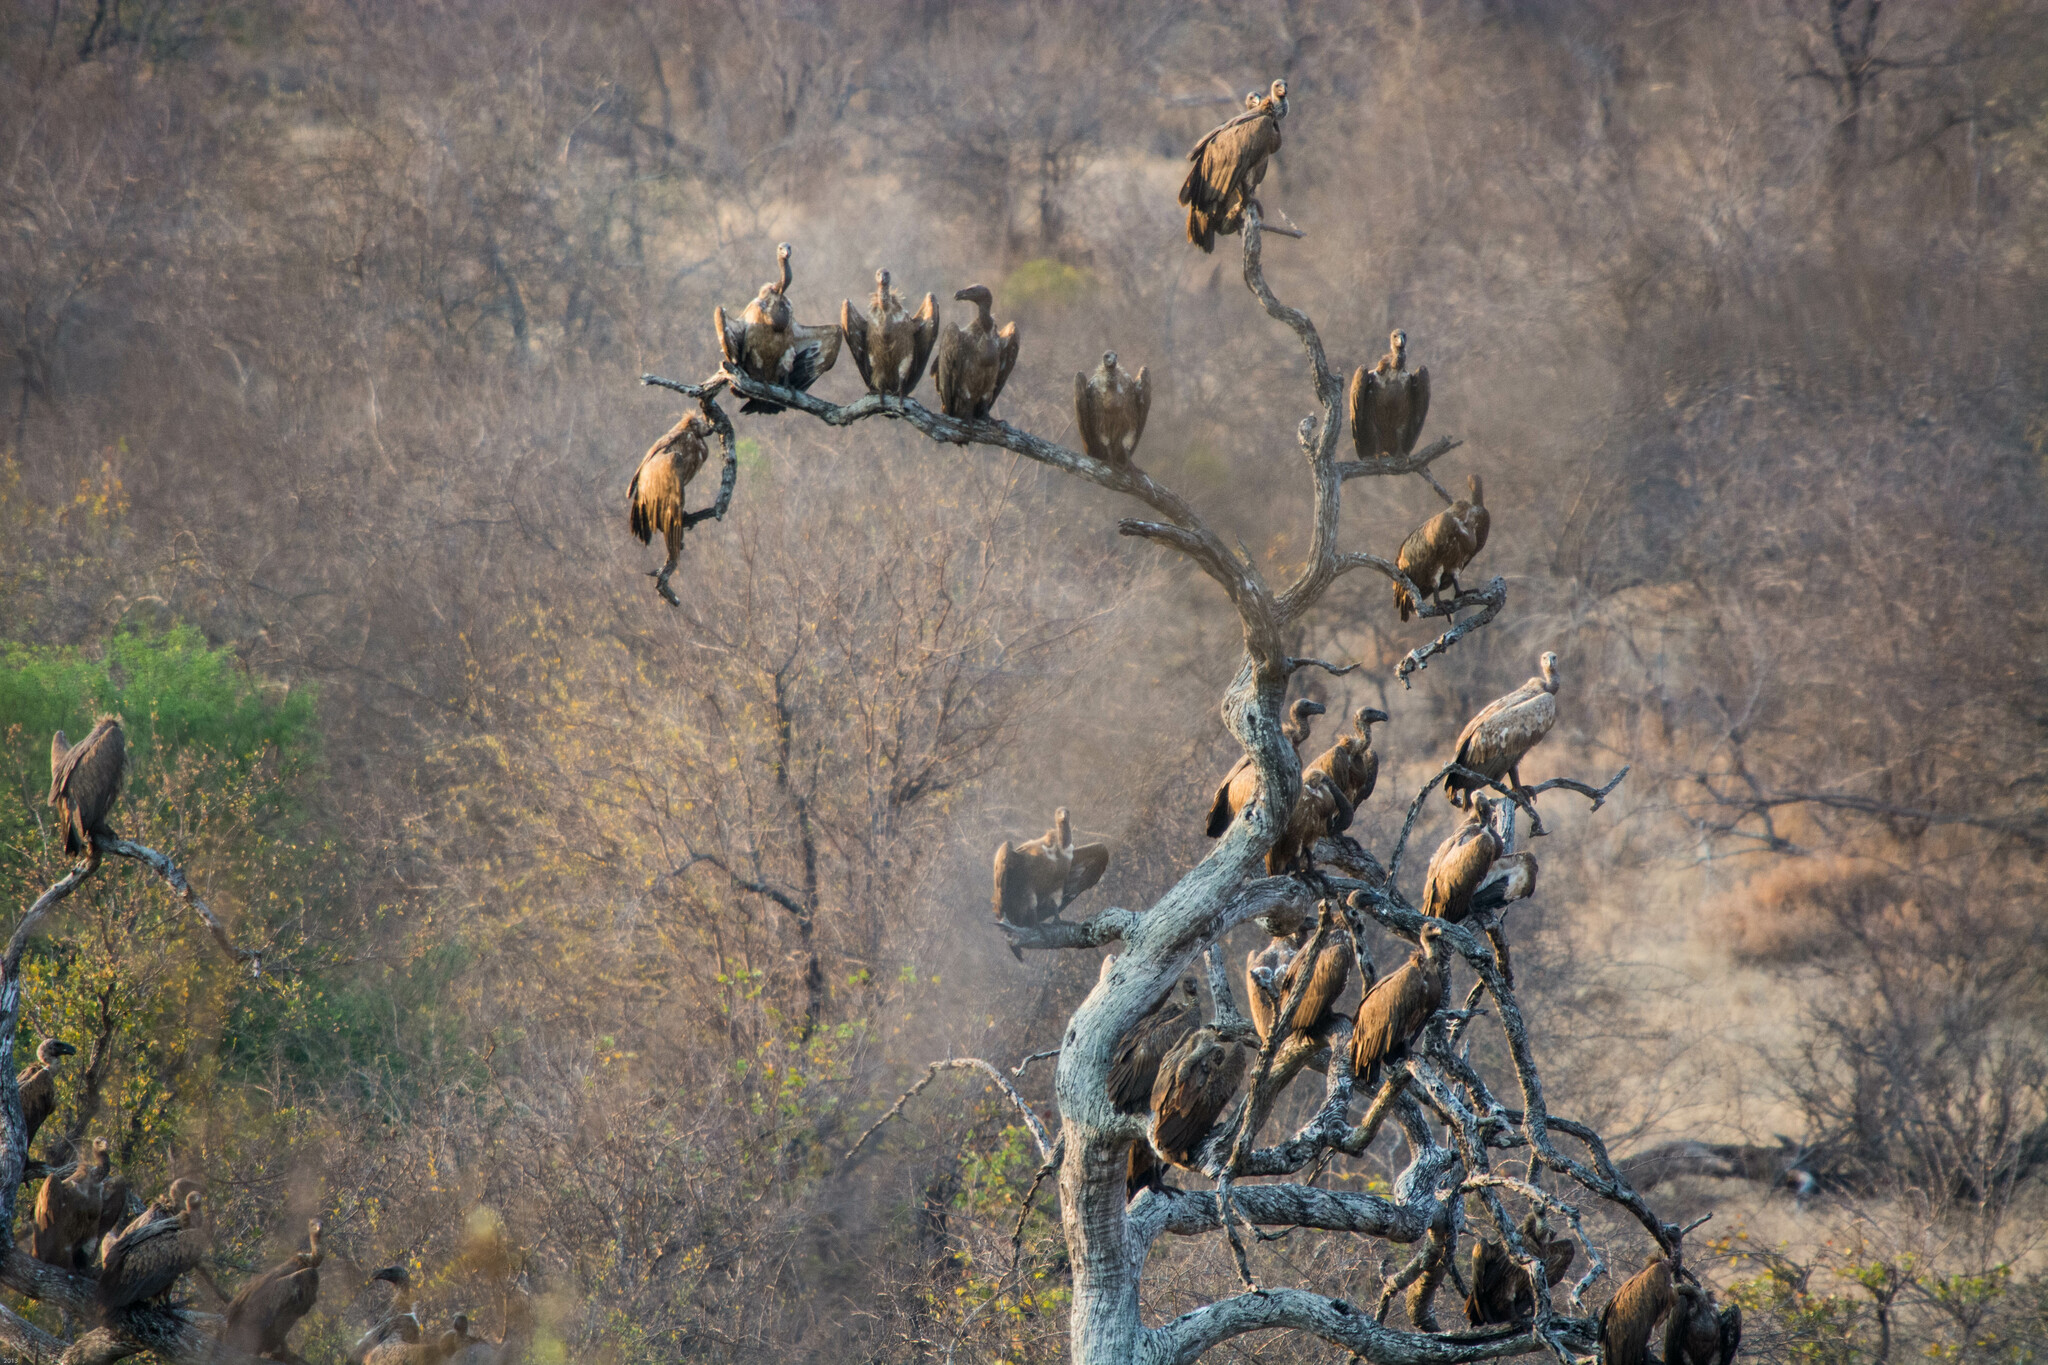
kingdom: Animalia
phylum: Chordata
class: Aves
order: Accipitriformes
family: Accipitridae
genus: Gyps
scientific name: Gyps africanus
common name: White-backed vulture
